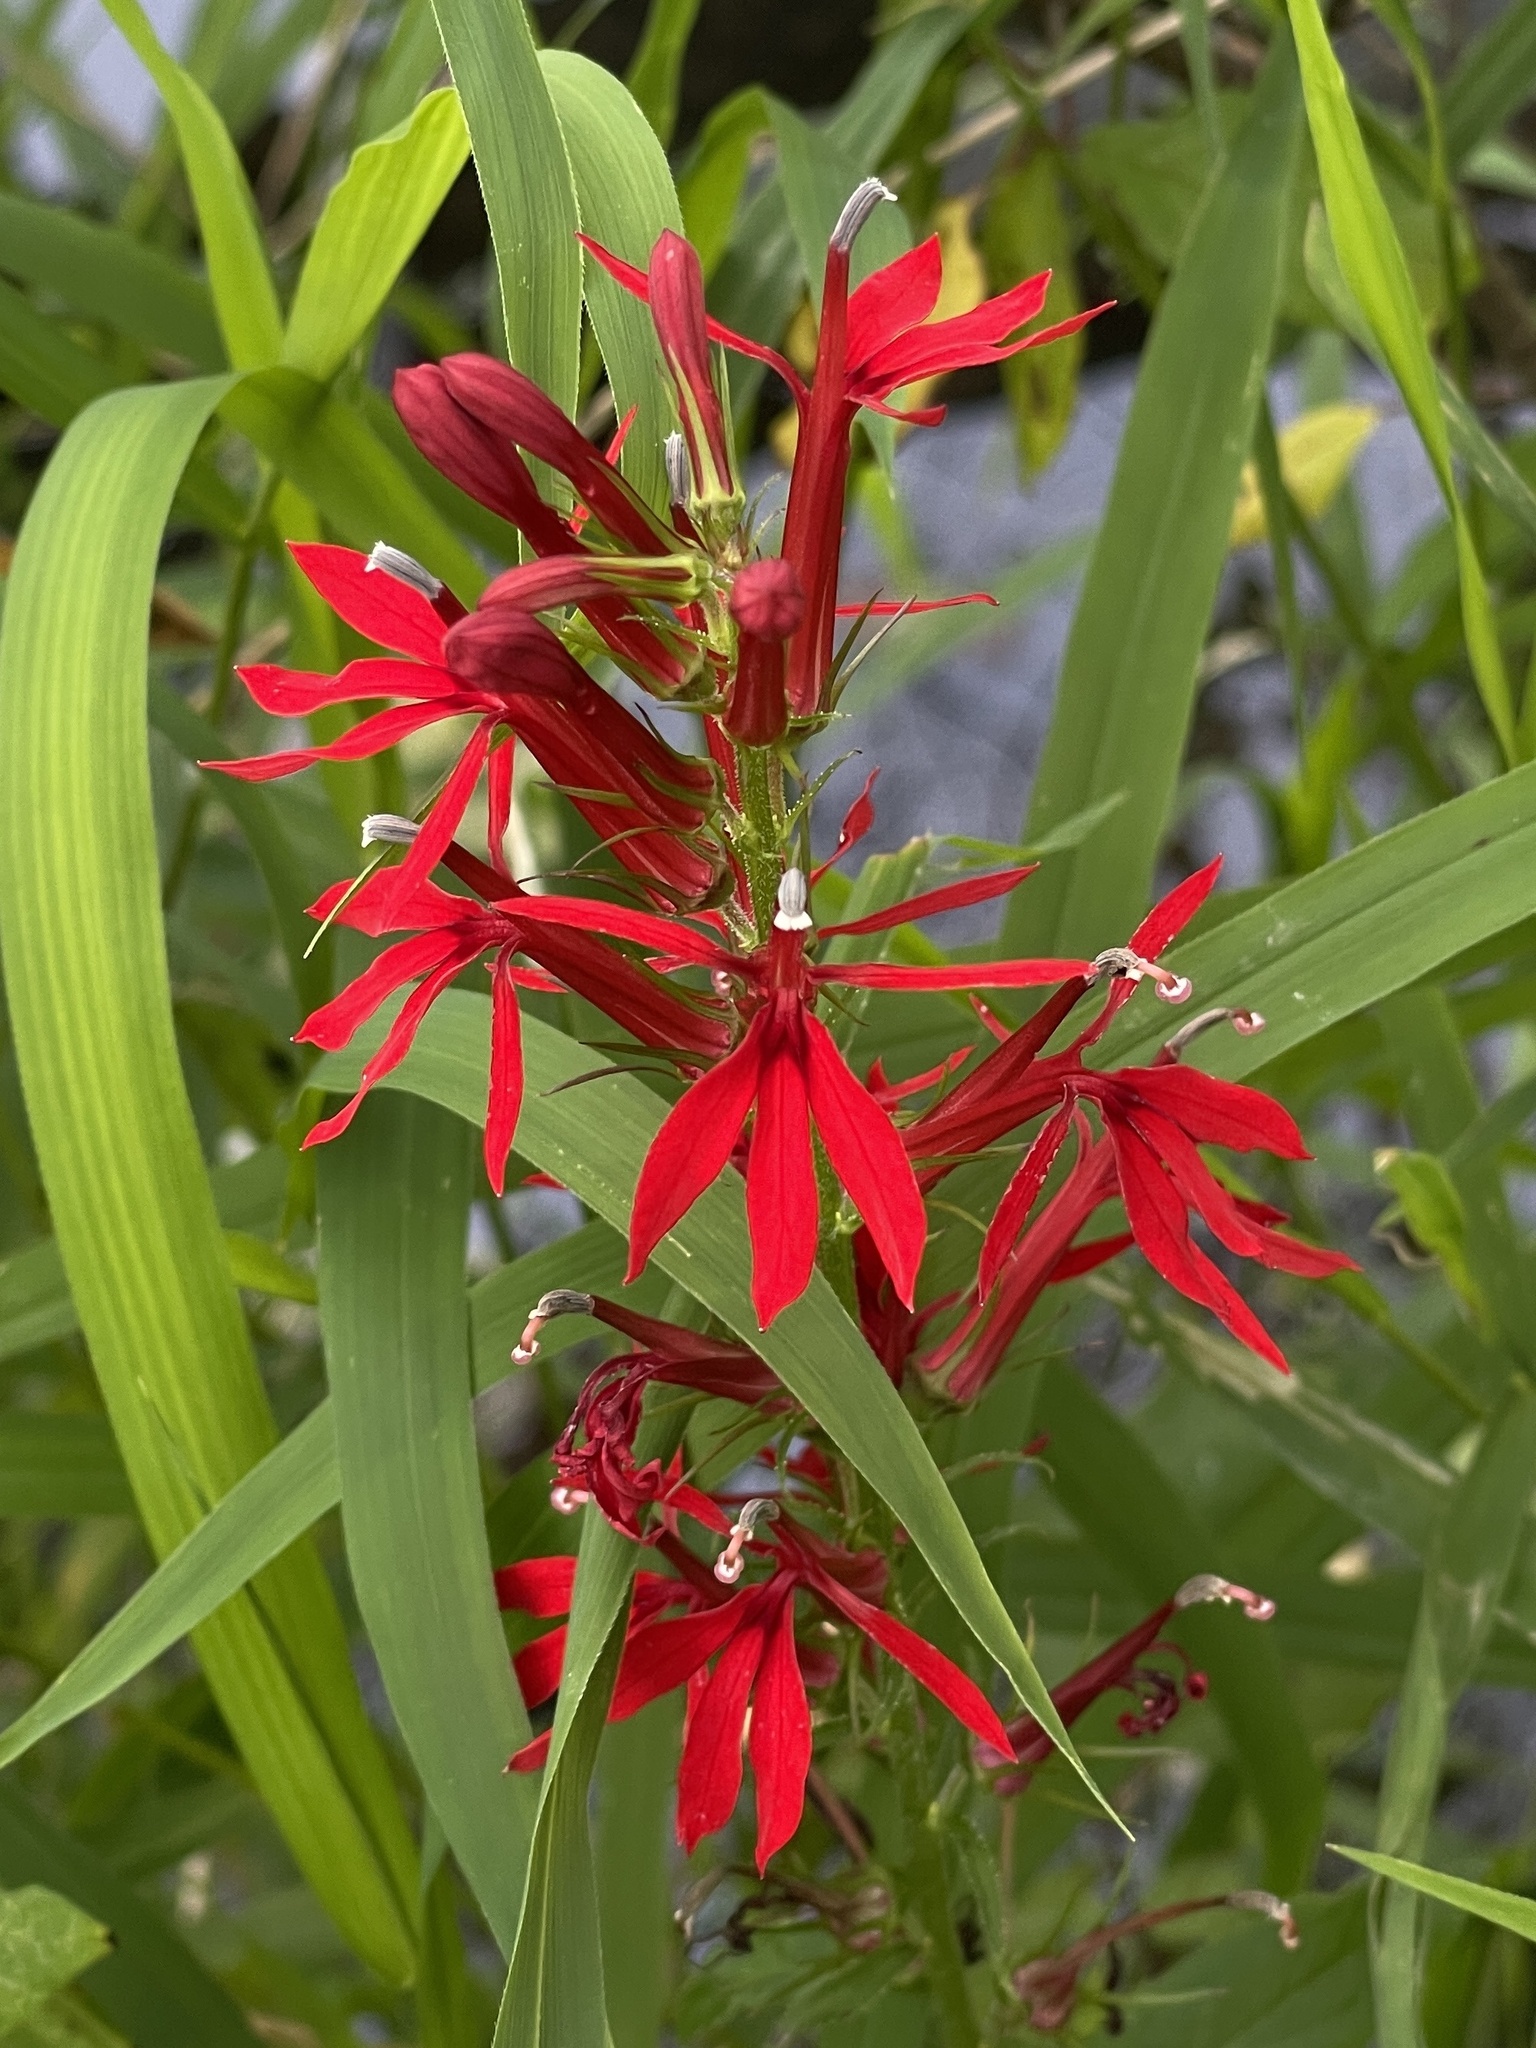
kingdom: Plantae
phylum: Tracheophyta
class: Magnoliopsida
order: Asterales
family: Campanulaceae
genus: Lobelia
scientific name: Lobelia cardinalis
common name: Cardinal flower
